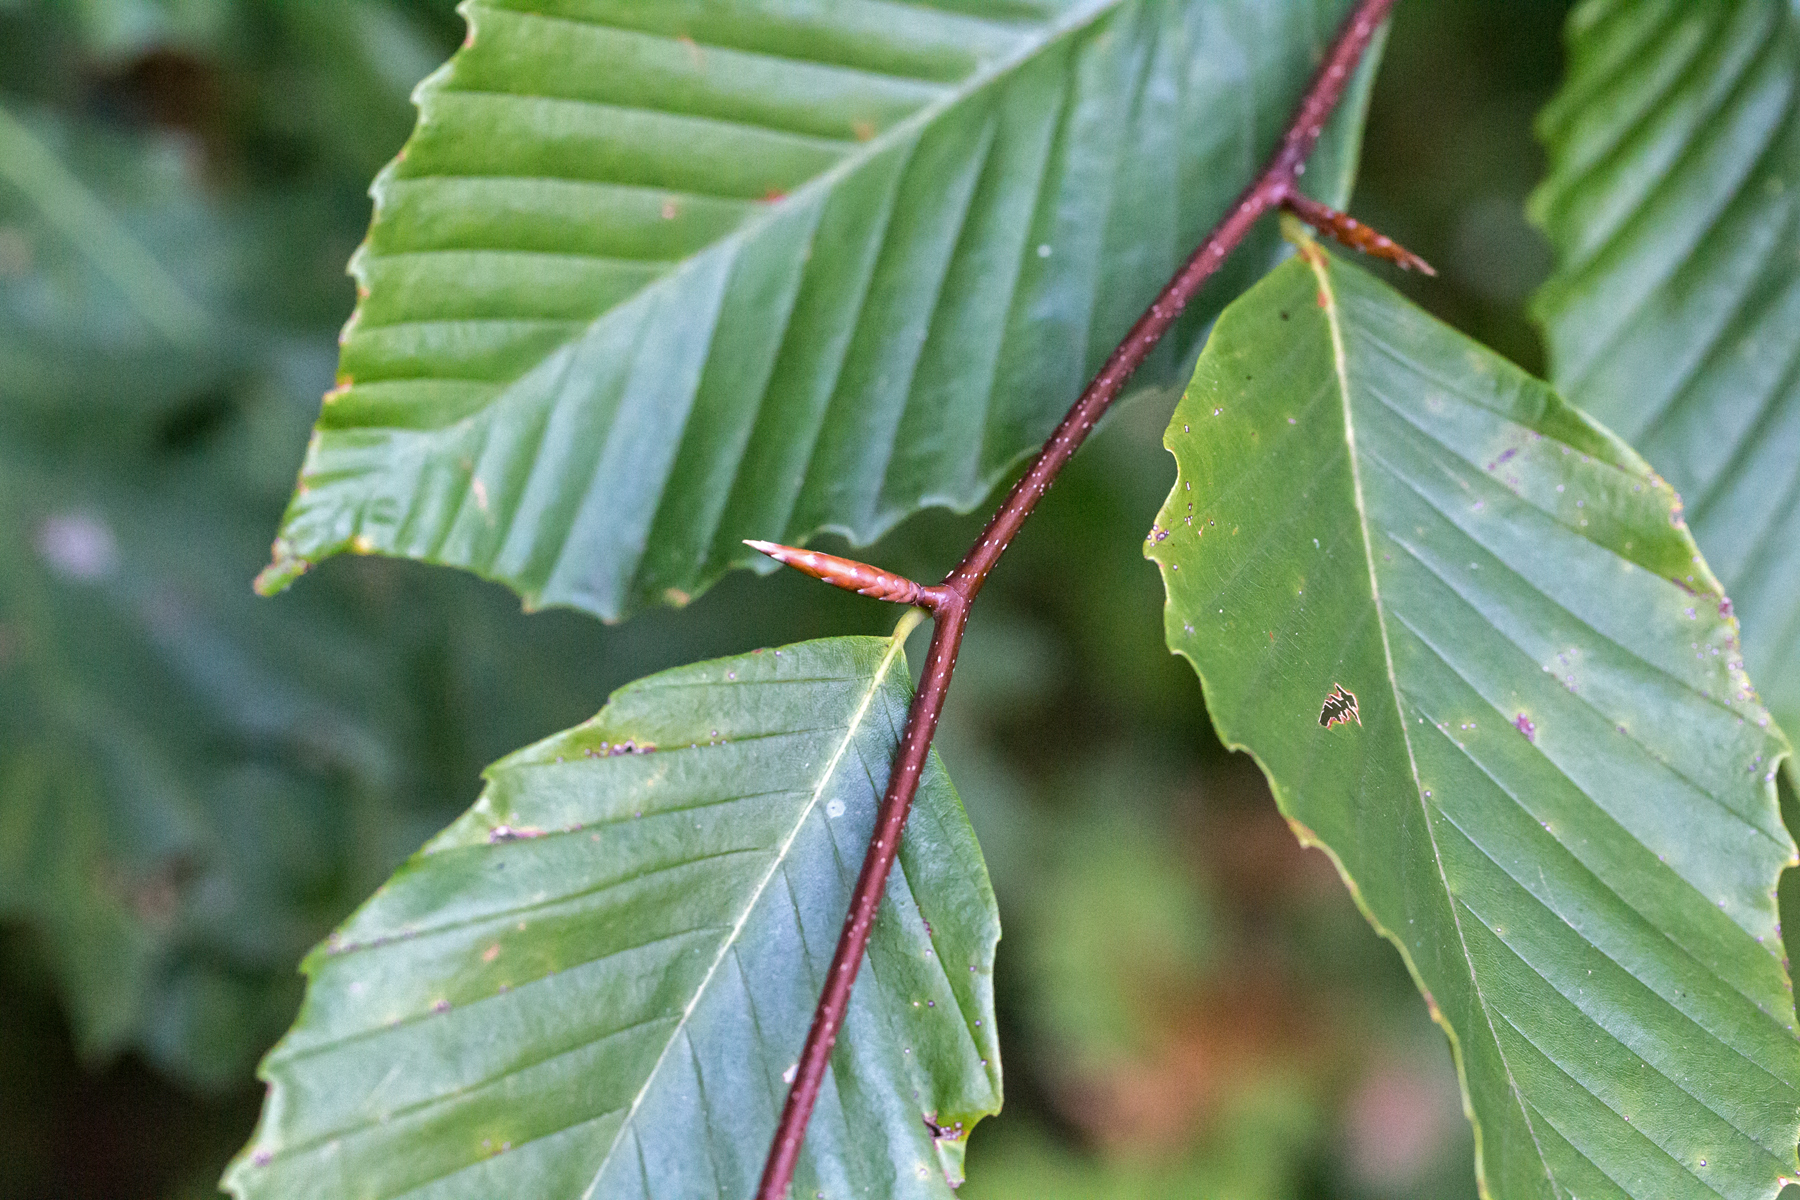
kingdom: Plantae
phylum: Tracheophyta
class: Magnoliopsida
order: Fagales
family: Fagaceae
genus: Fagus
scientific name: Fagus grandifolia
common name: American beech
